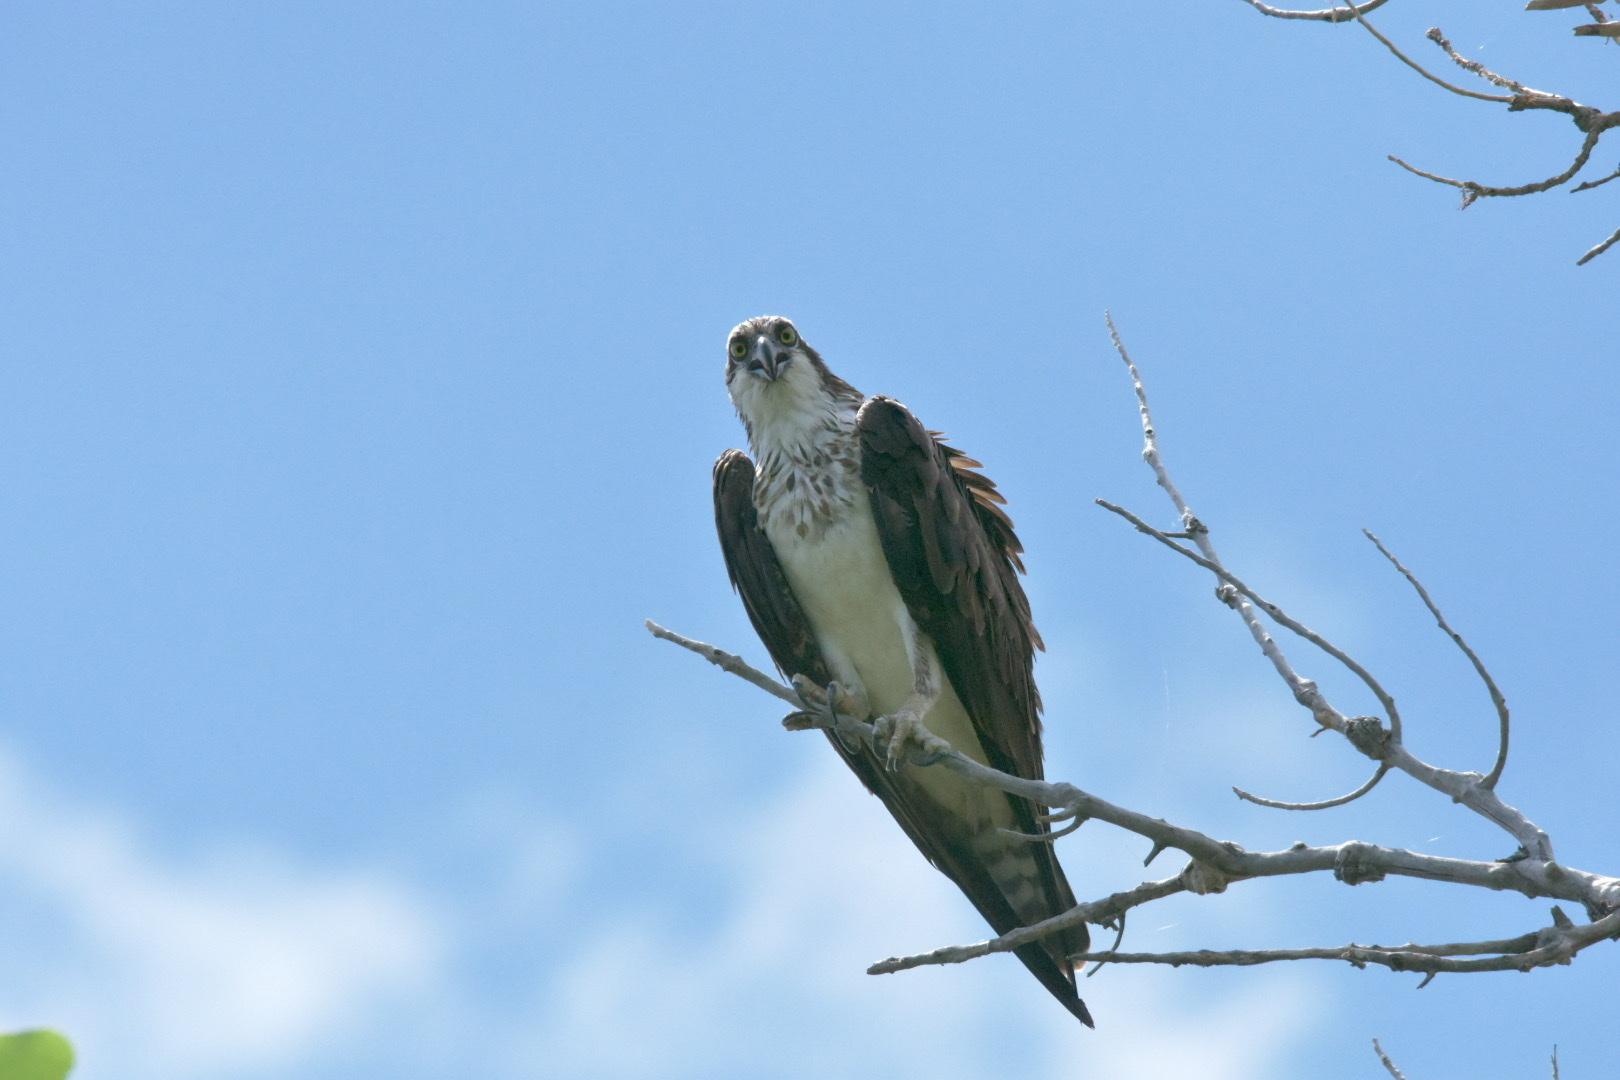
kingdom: Animalia
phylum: Chordata
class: Aves
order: Accipitriformes
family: Pandionidae
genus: Pandion
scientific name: Pandion haliaetus
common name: Osprey
